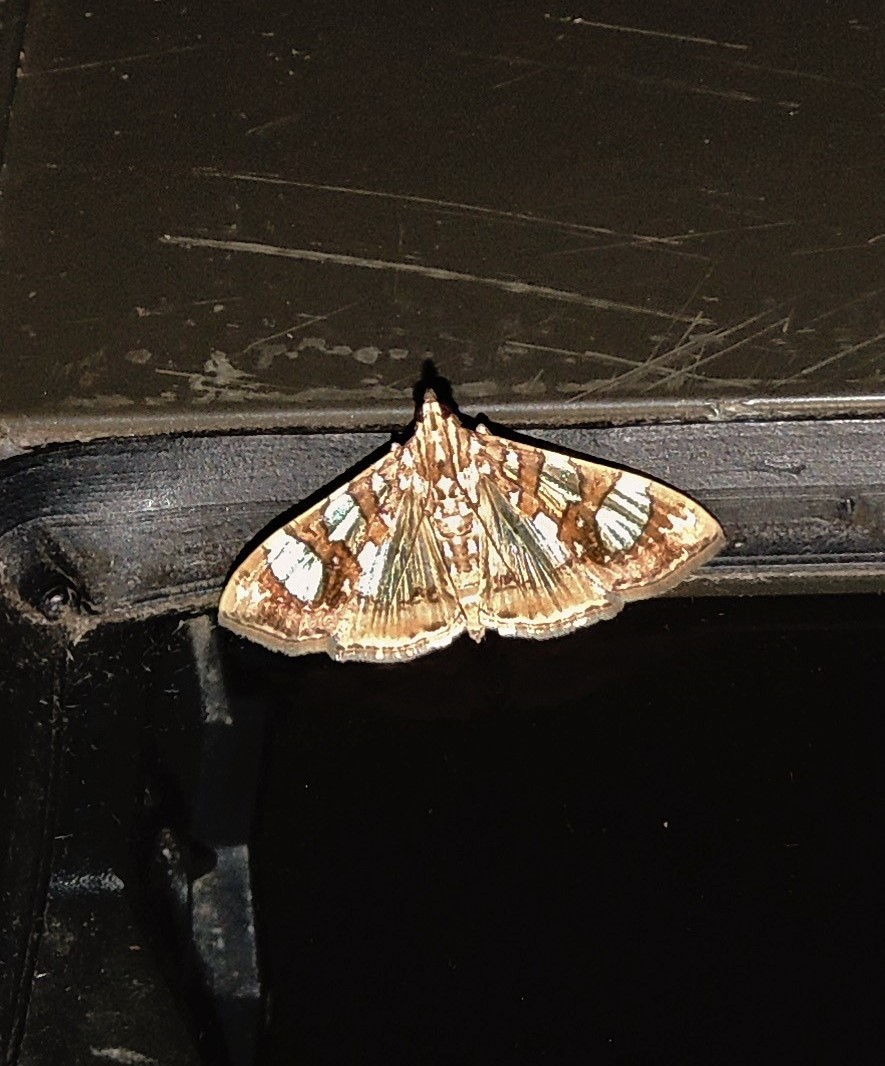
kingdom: Animalia
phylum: Arthropoda
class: Insecta
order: Lepidoptera
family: Crambidae
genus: Glyphodes
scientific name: Glyphodes sibillalis
